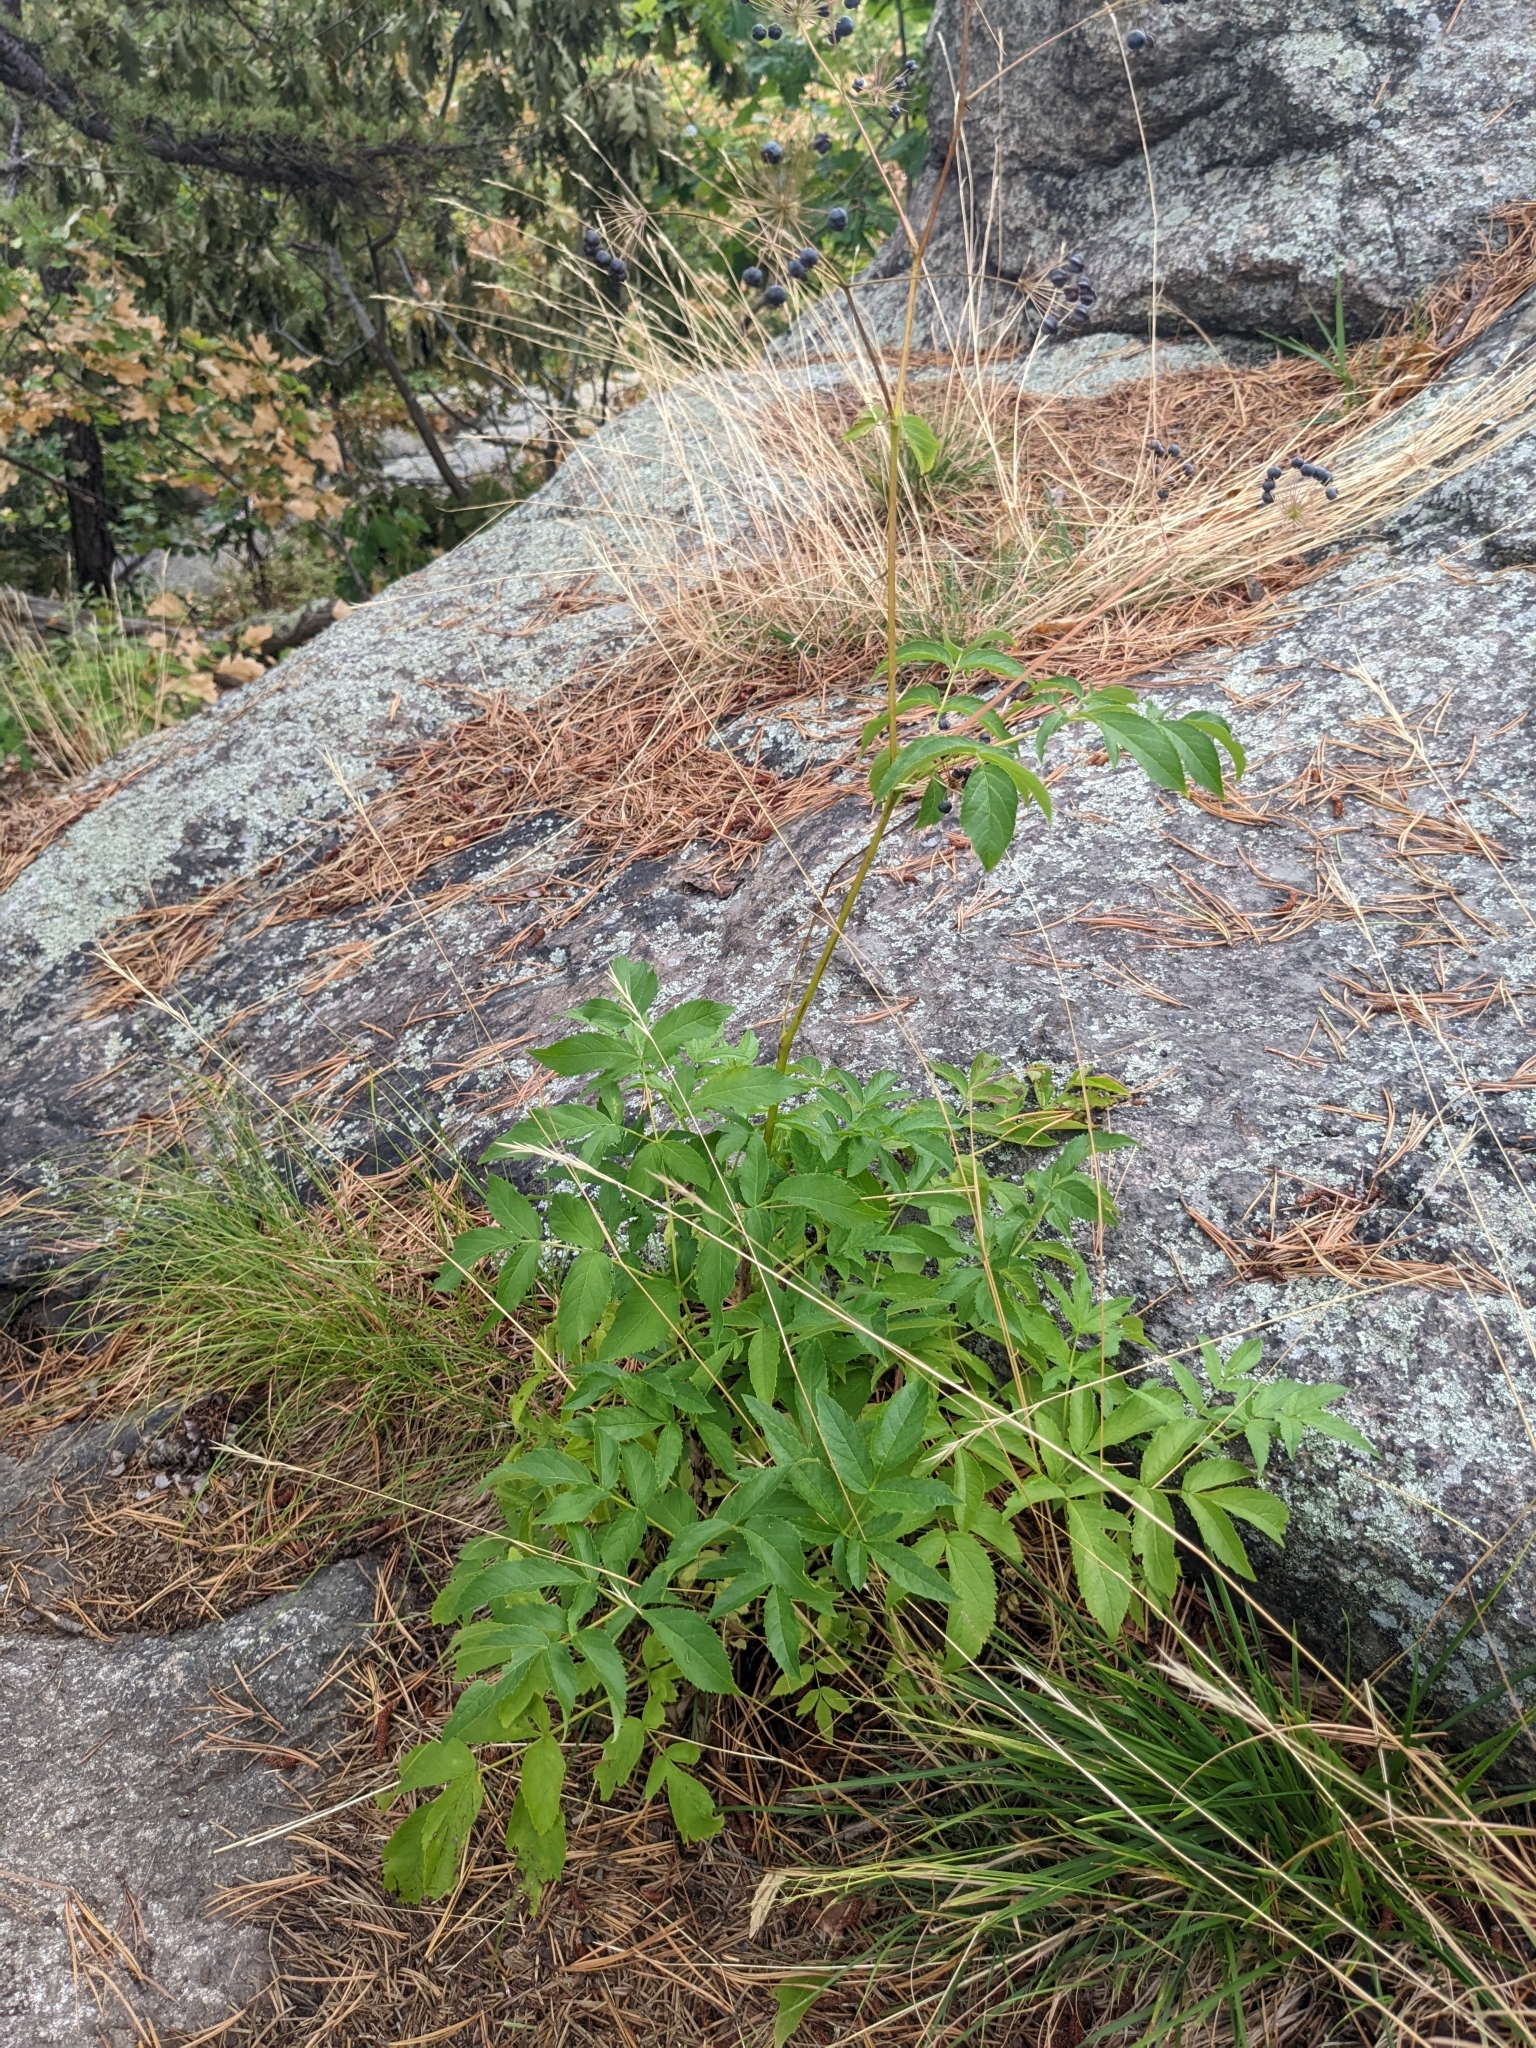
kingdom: Plantae
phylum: Tracheophyta
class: Magnoliopsida
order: Apiales
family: Araliaceae
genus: Aralia
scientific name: Aralia hispida
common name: Bristly sarsaparilla
